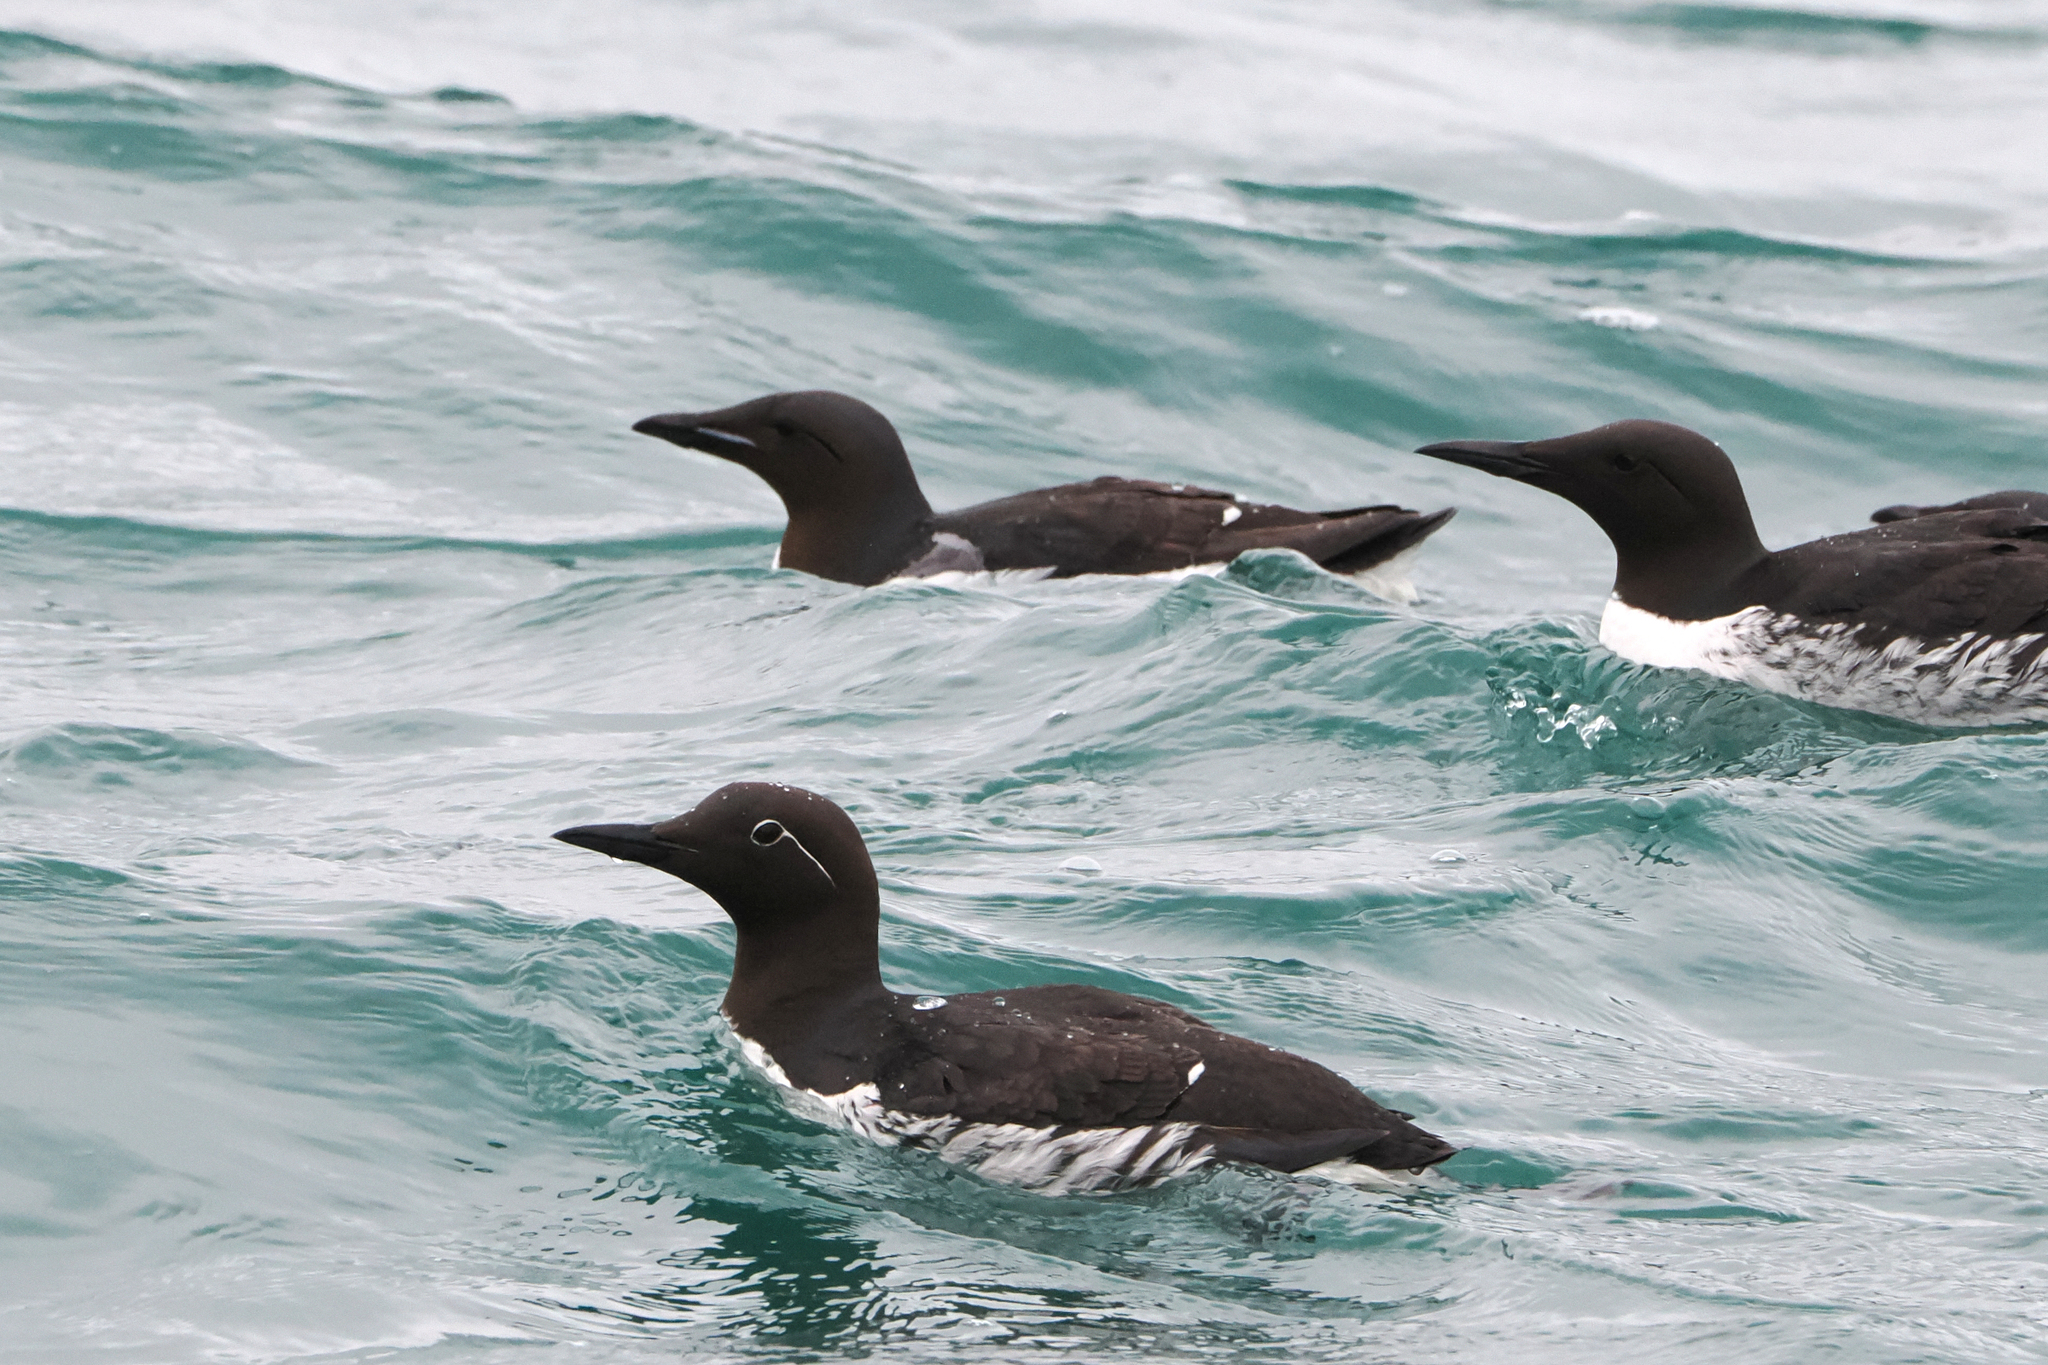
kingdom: Animalia
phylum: Chordata
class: Aves
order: Charadriiformes
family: Alcidae
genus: Uria
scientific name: Uria lomvia
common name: Thick-billed murre
